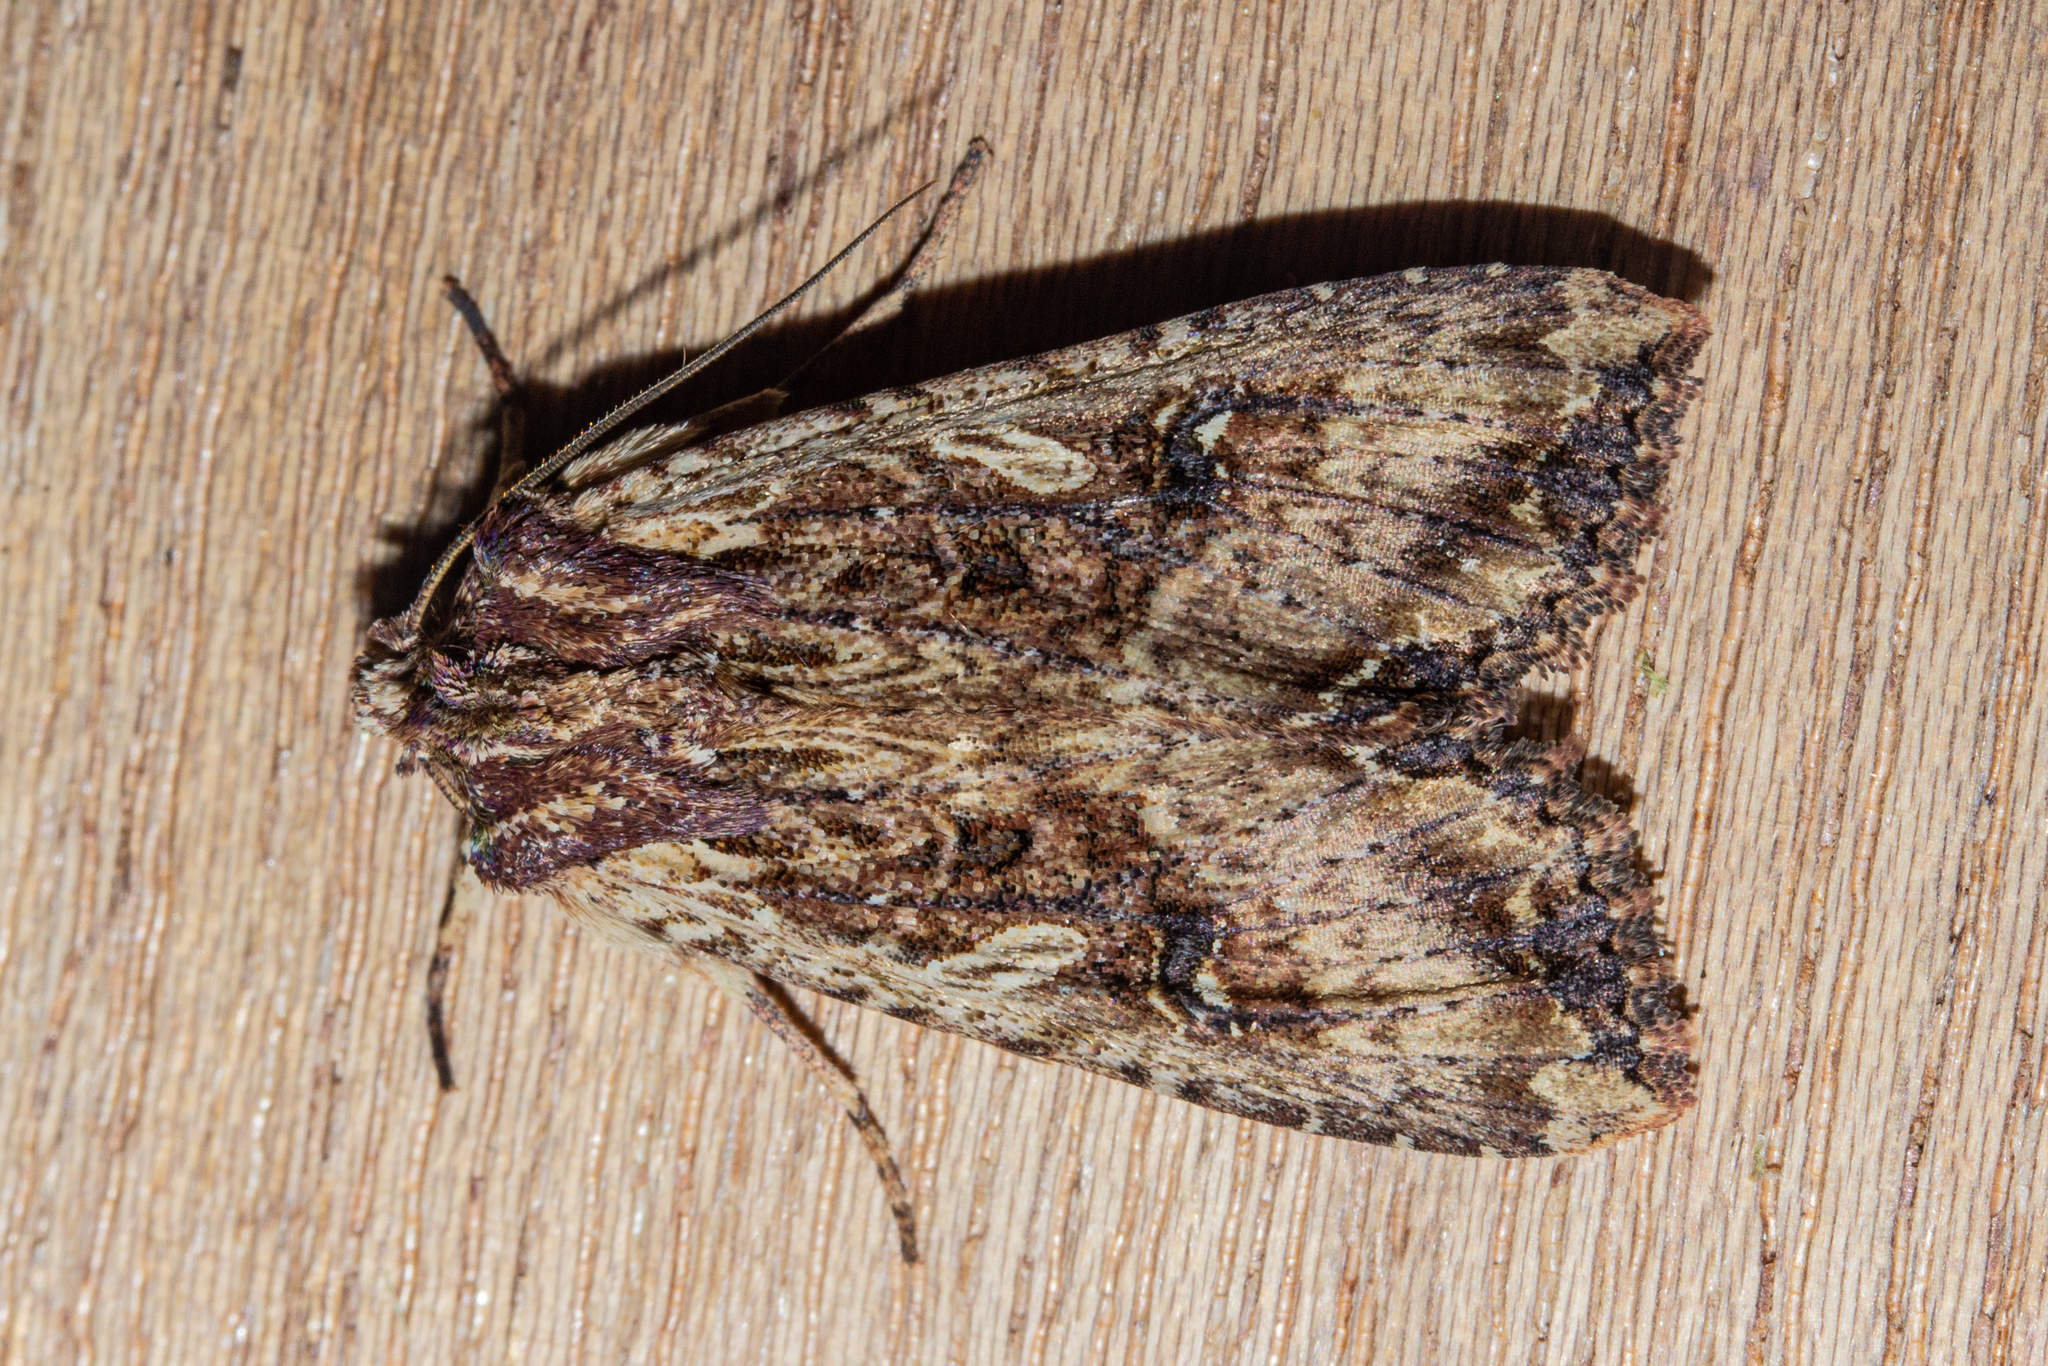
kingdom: Animalia
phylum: Arthropoda
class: Insecta
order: Lepidoptera
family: Noctuidae
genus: Meterana
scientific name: Meterana stipata
